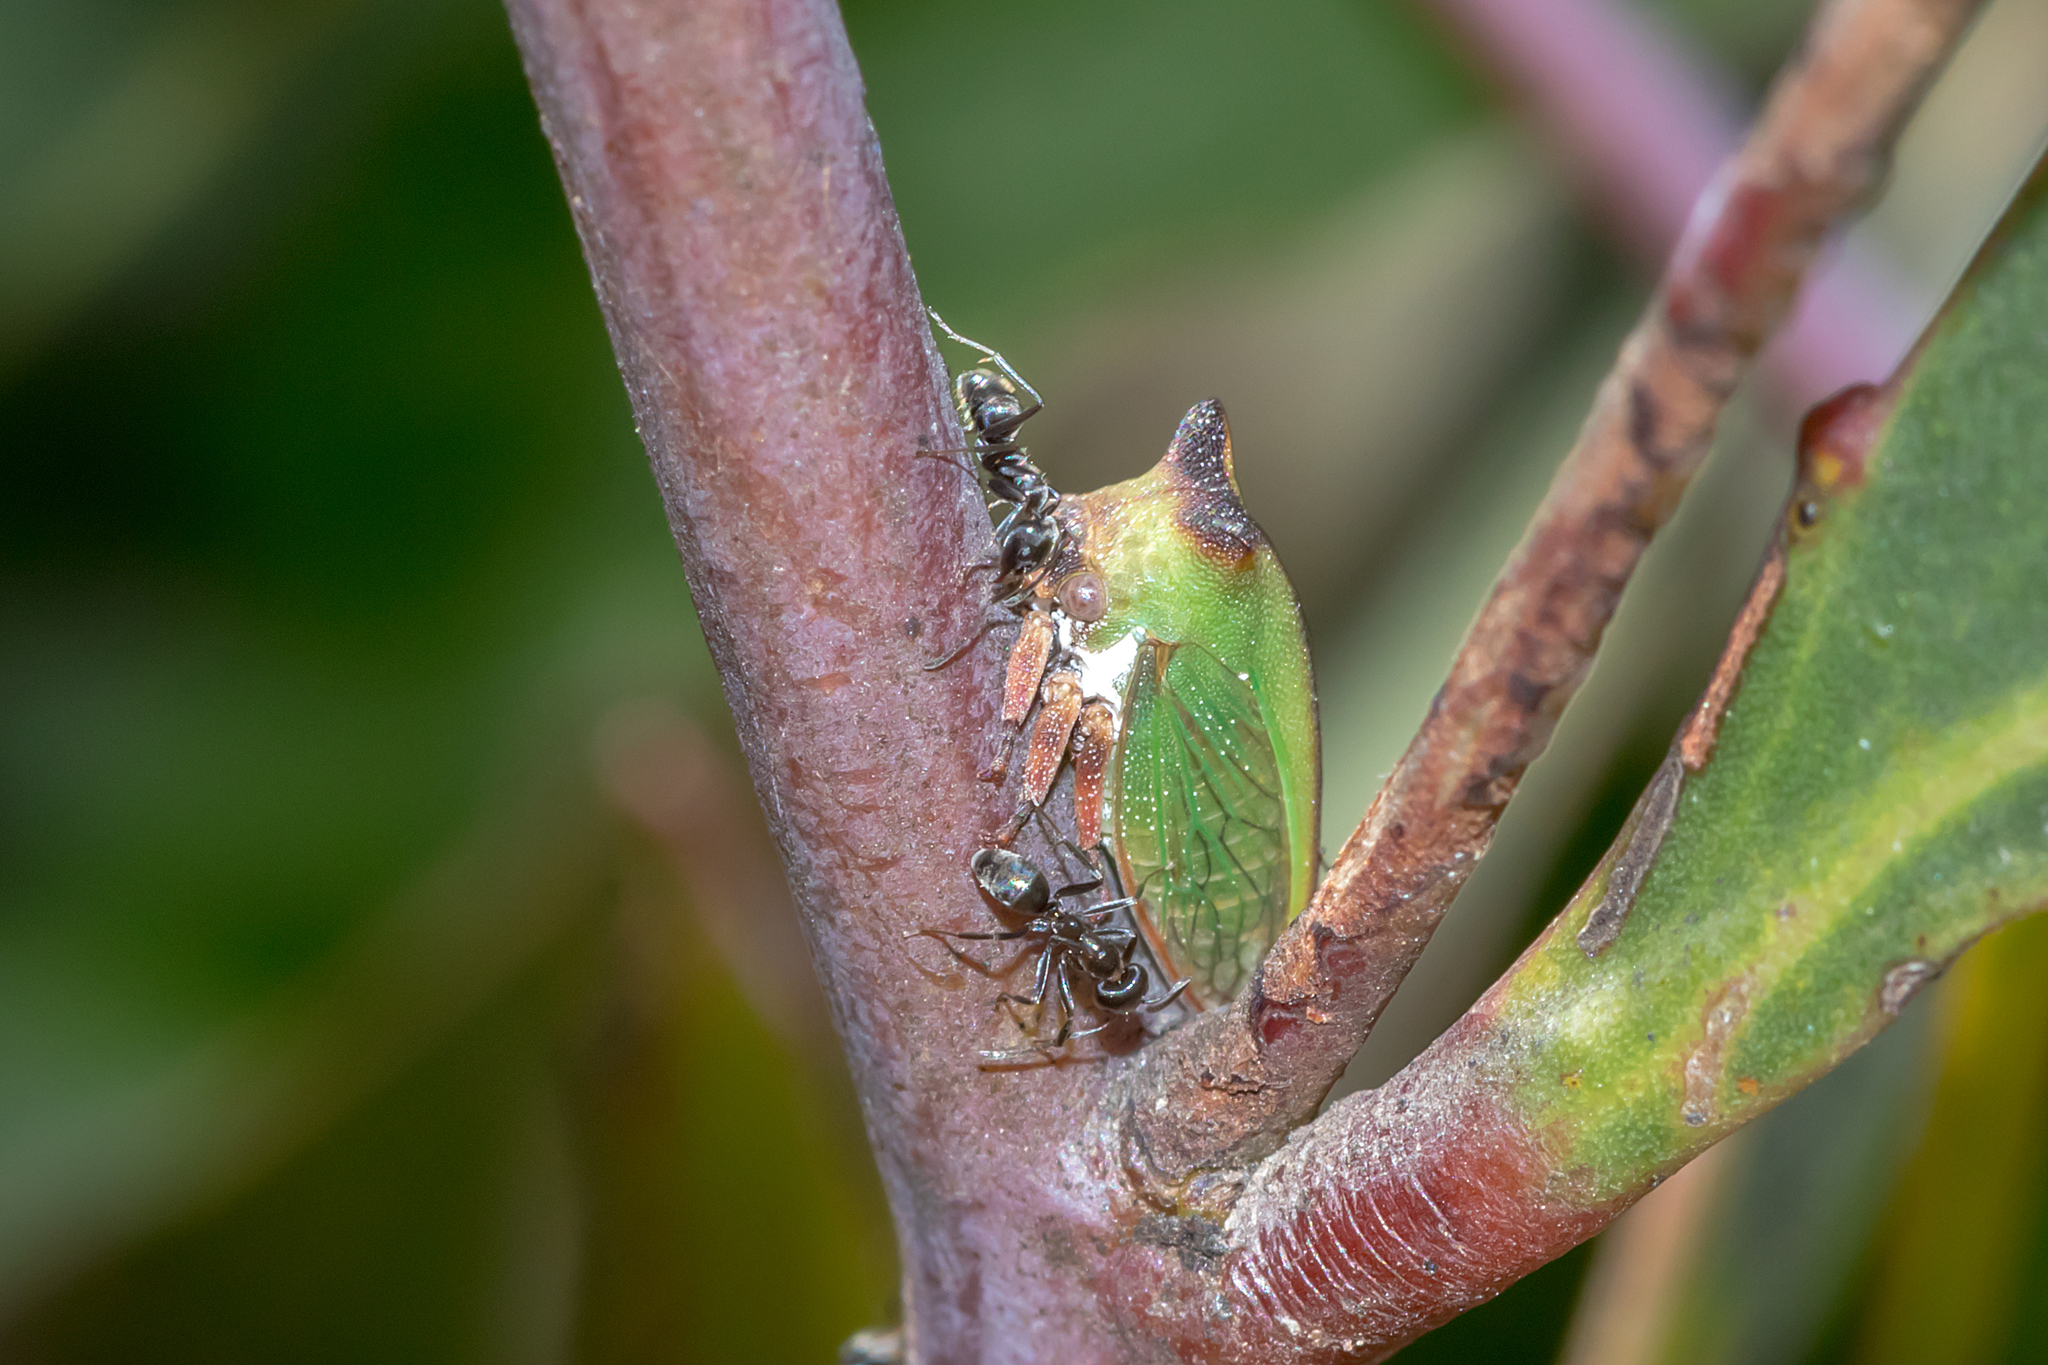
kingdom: Animalia
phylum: Arthropoda
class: Insecta
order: Hemiptera
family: Membracidae
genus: Sextius
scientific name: Sextius virescens
